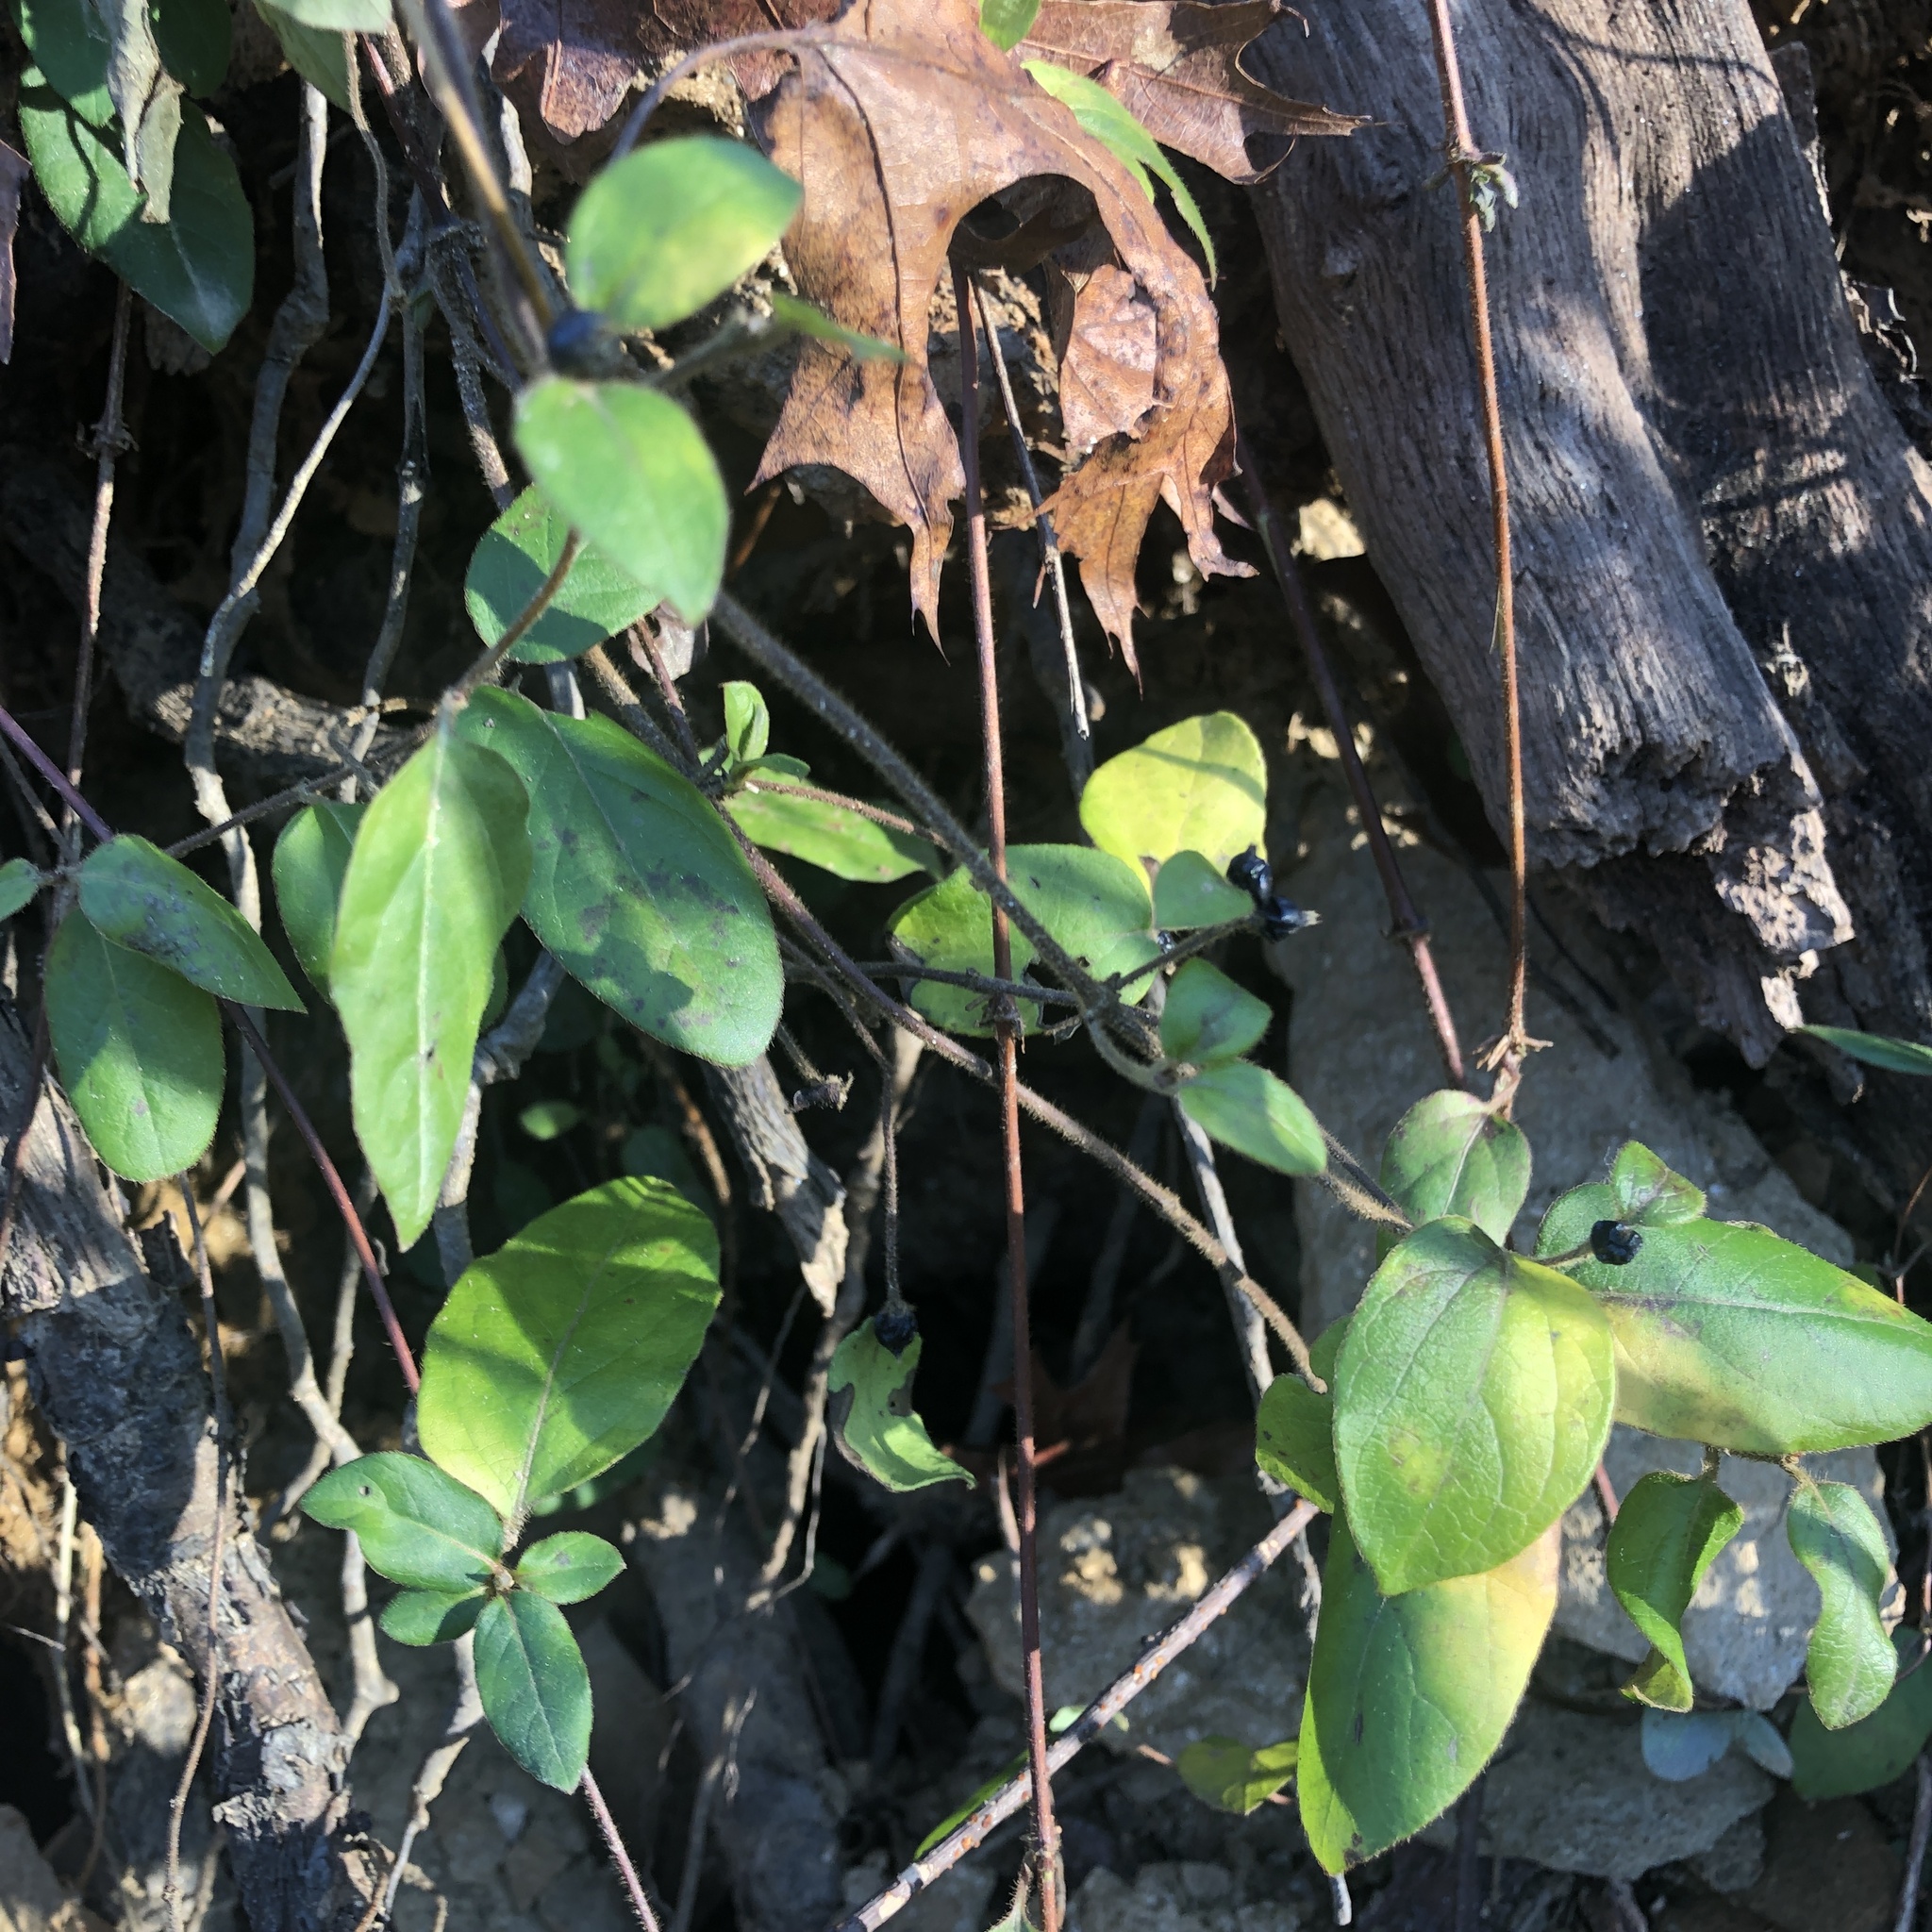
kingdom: Plantae
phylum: Tracheophyta
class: Magnoliopsida
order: Dipsacales
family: Caprifoliaceae
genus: Lonicera
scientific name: Lonicera japonica
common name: Japanese honeysuckle
